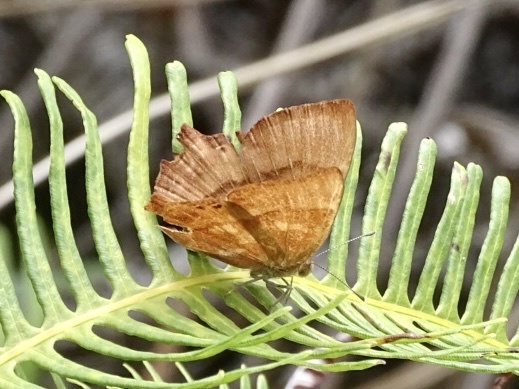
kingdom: Animalia
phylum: Arthropoda
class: Insecta
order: Lepidoptera
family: Lycaenidae
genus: Abisara
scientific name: Abisara echeria
